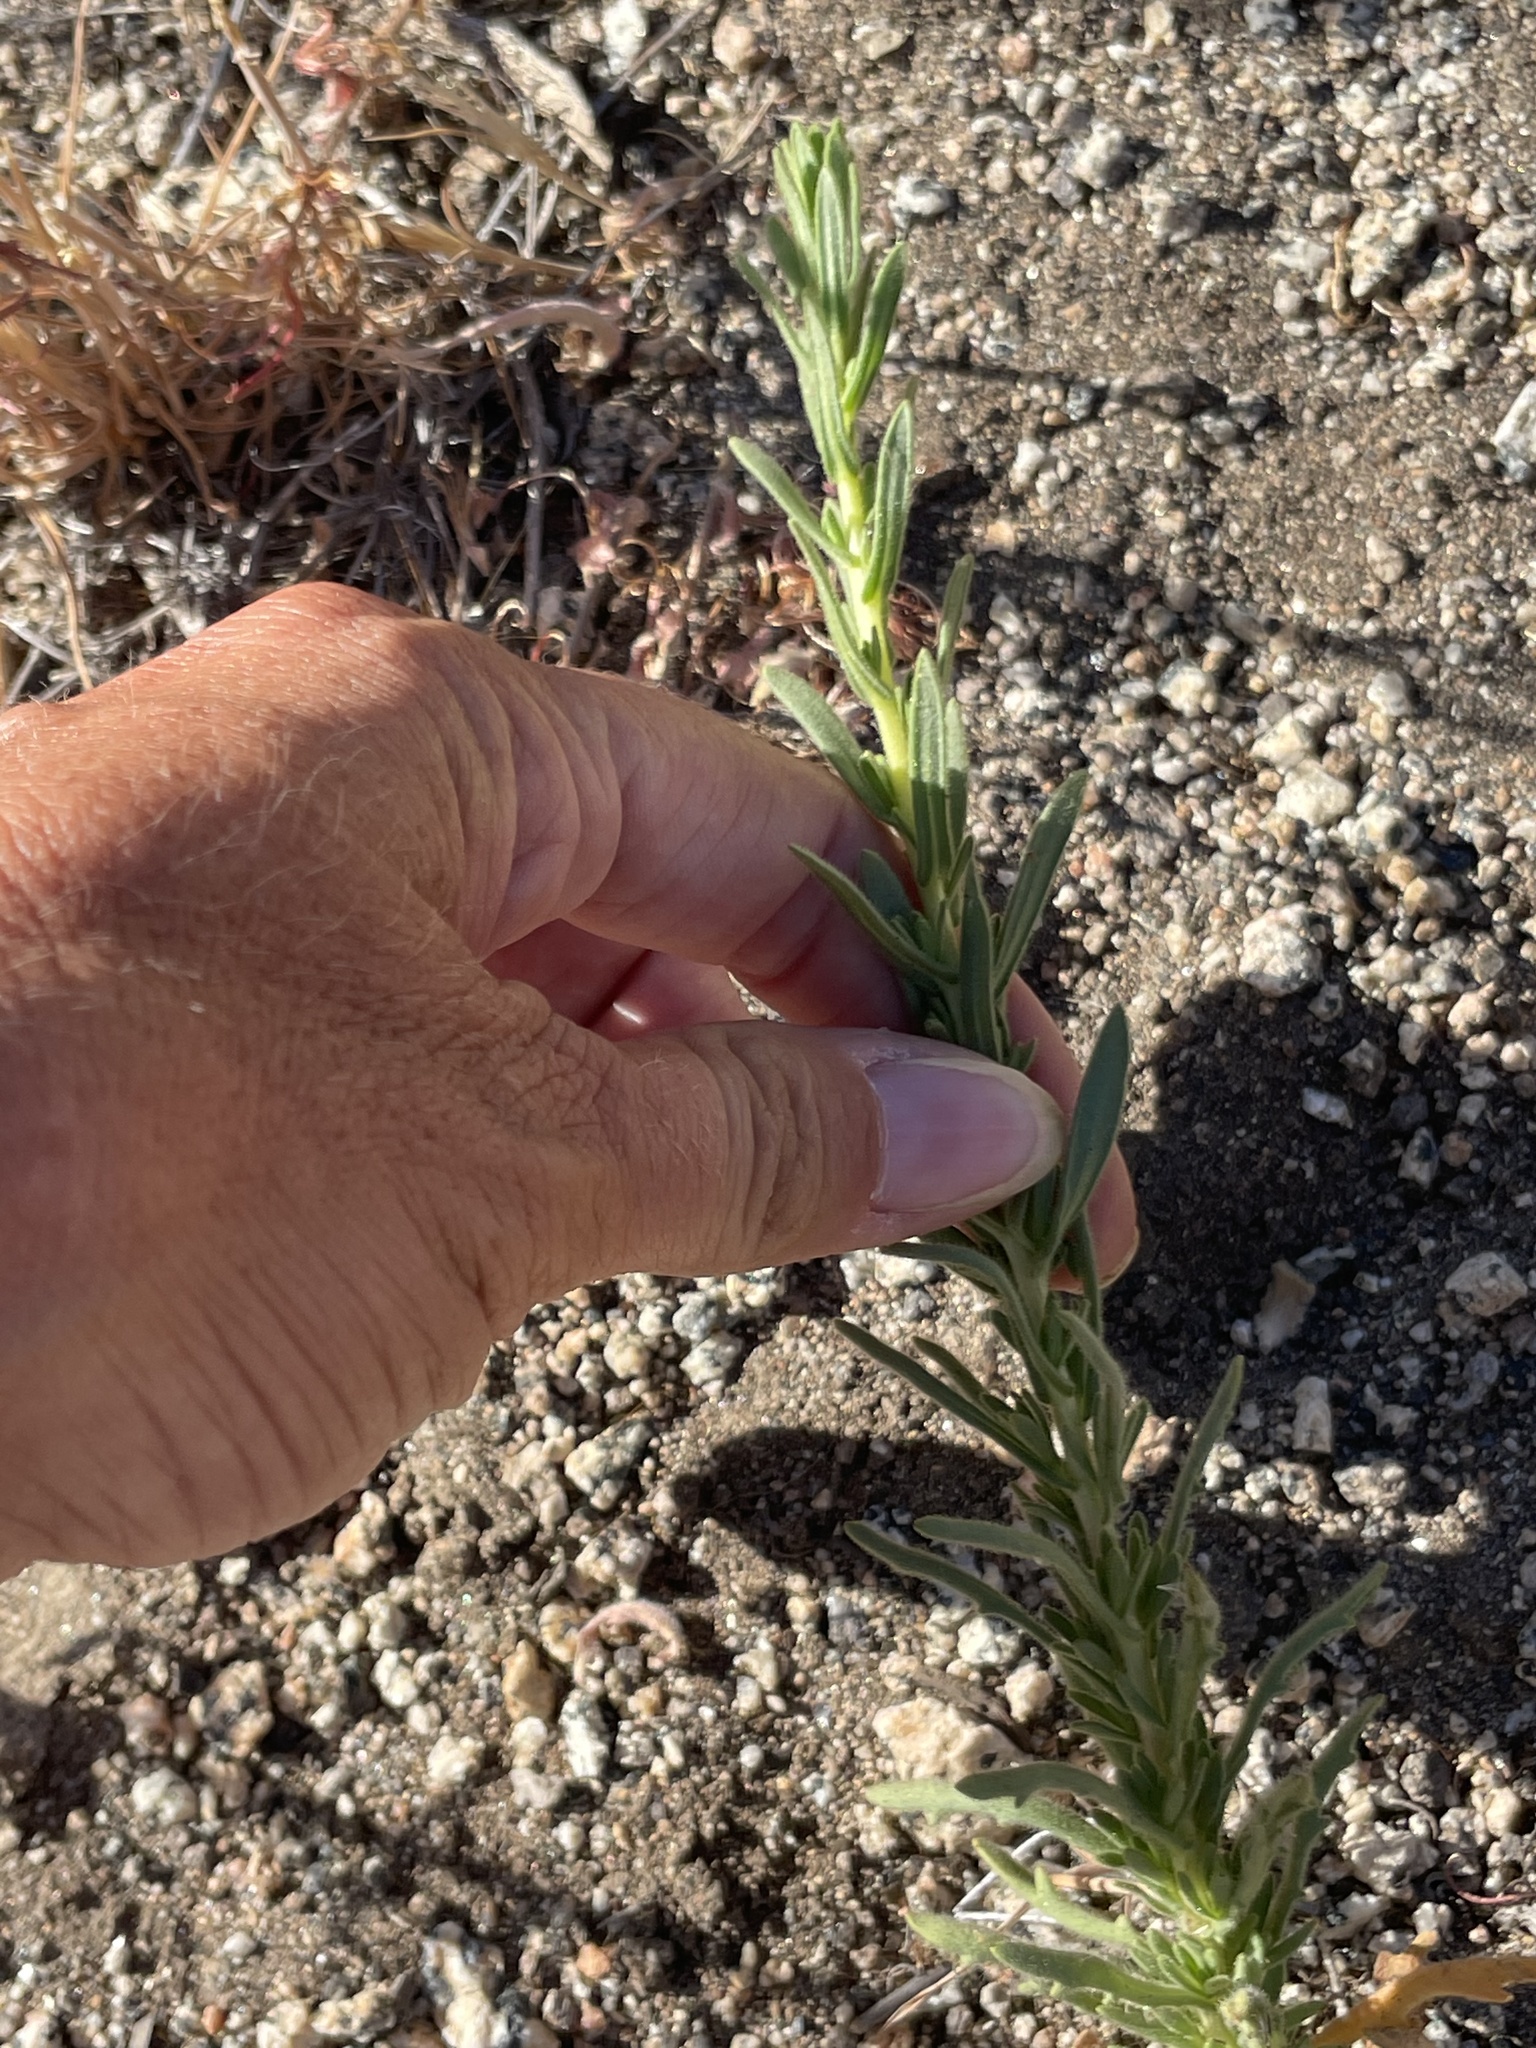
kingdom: Plantae
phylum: Tracheophyta
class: Magnoliopsida
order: Asterales
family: Asteraceae
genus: Deinandra
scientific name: Deinandra floribunda
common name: Tecate tarweed
